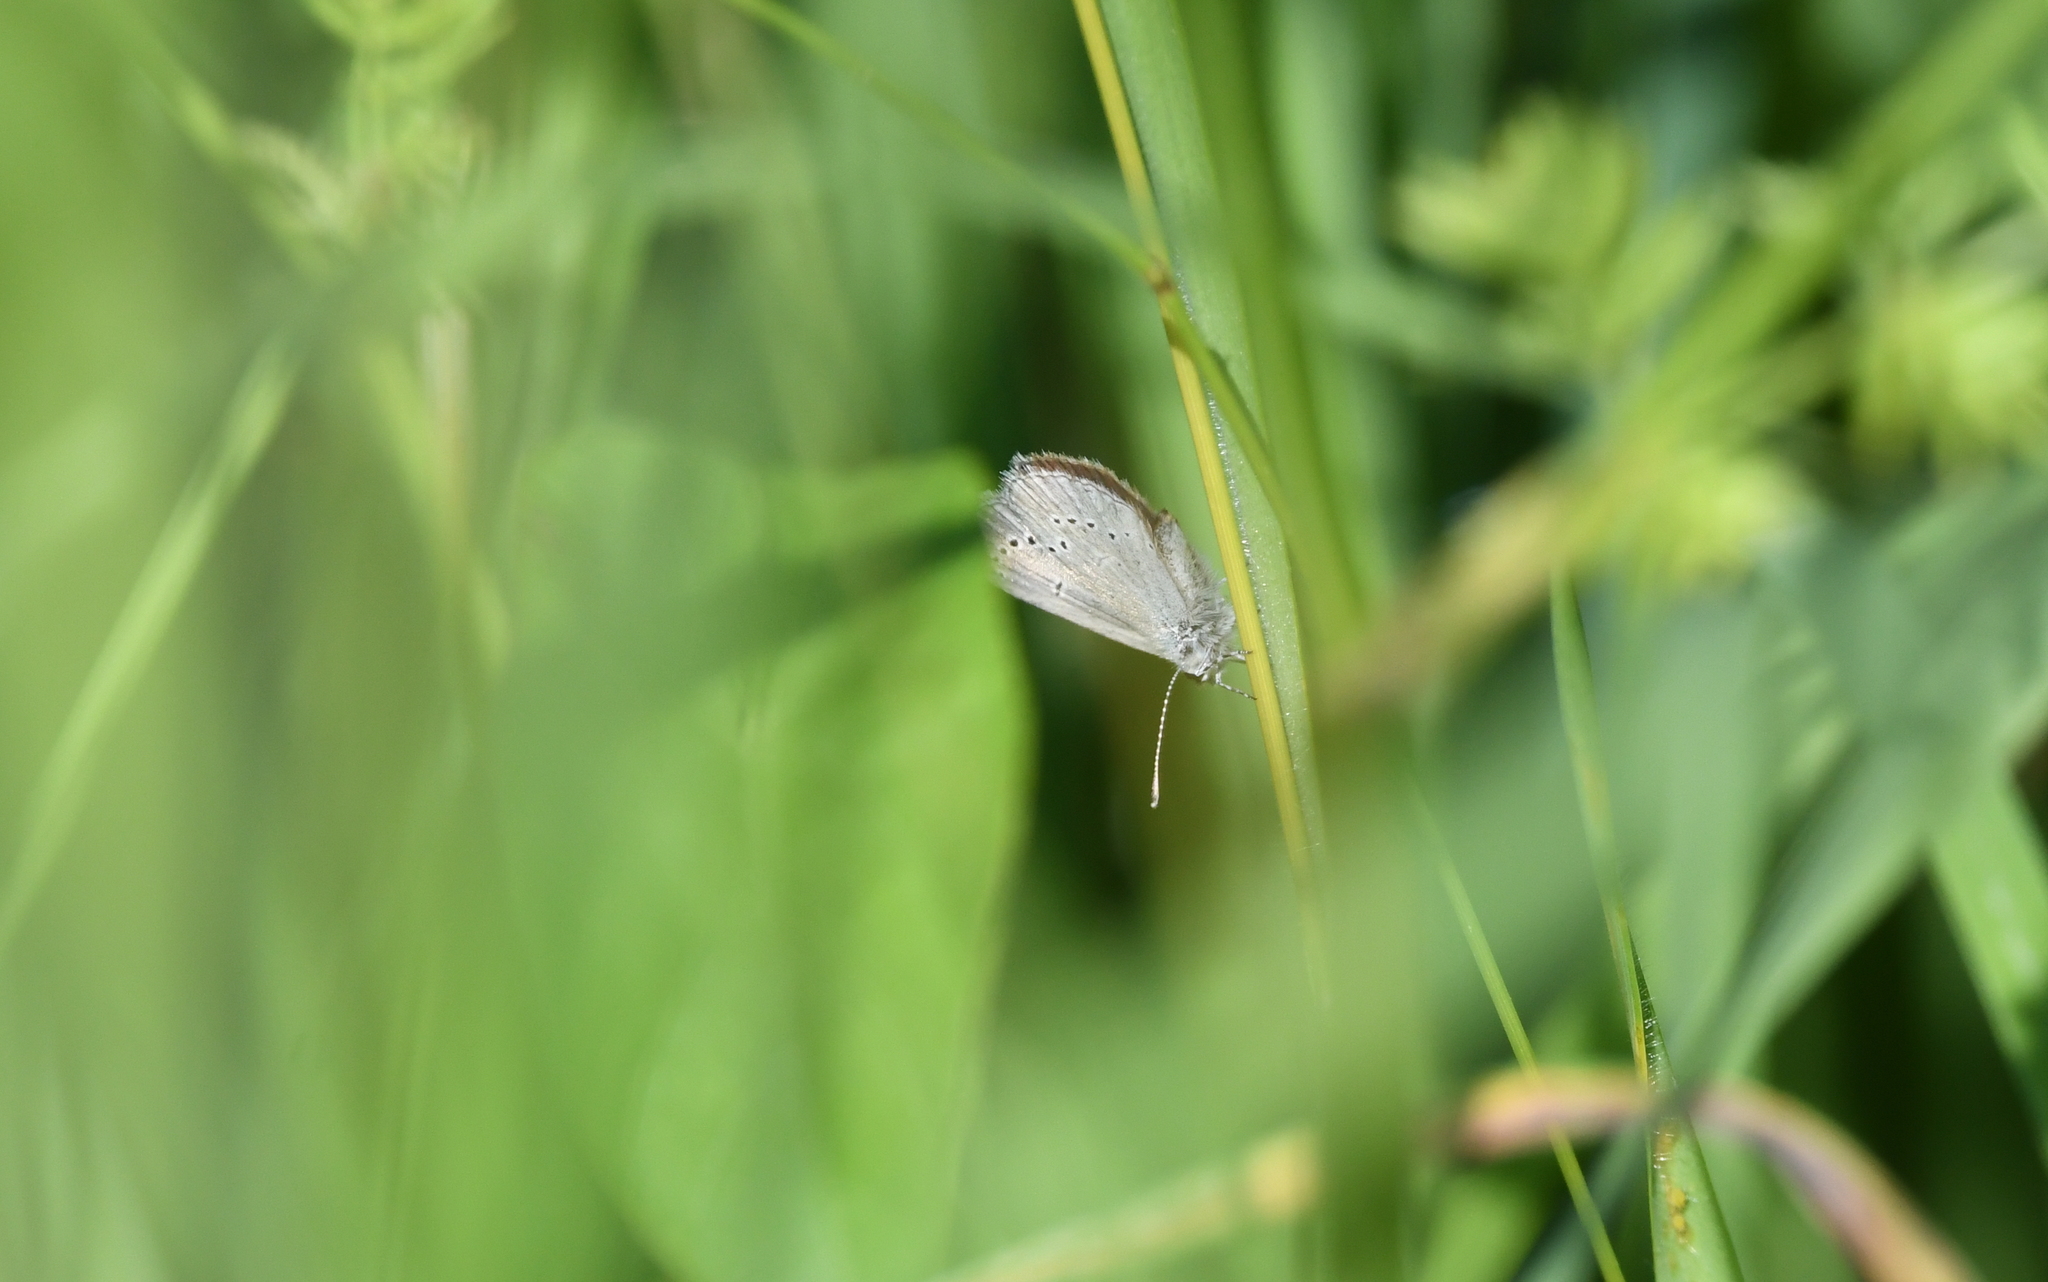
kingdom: Animalia
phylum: Arthropoda
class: Insecta
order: Lepidoptera
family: Lycaenidae
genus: Cupido
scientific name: Cupido minimus
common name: Small blue
